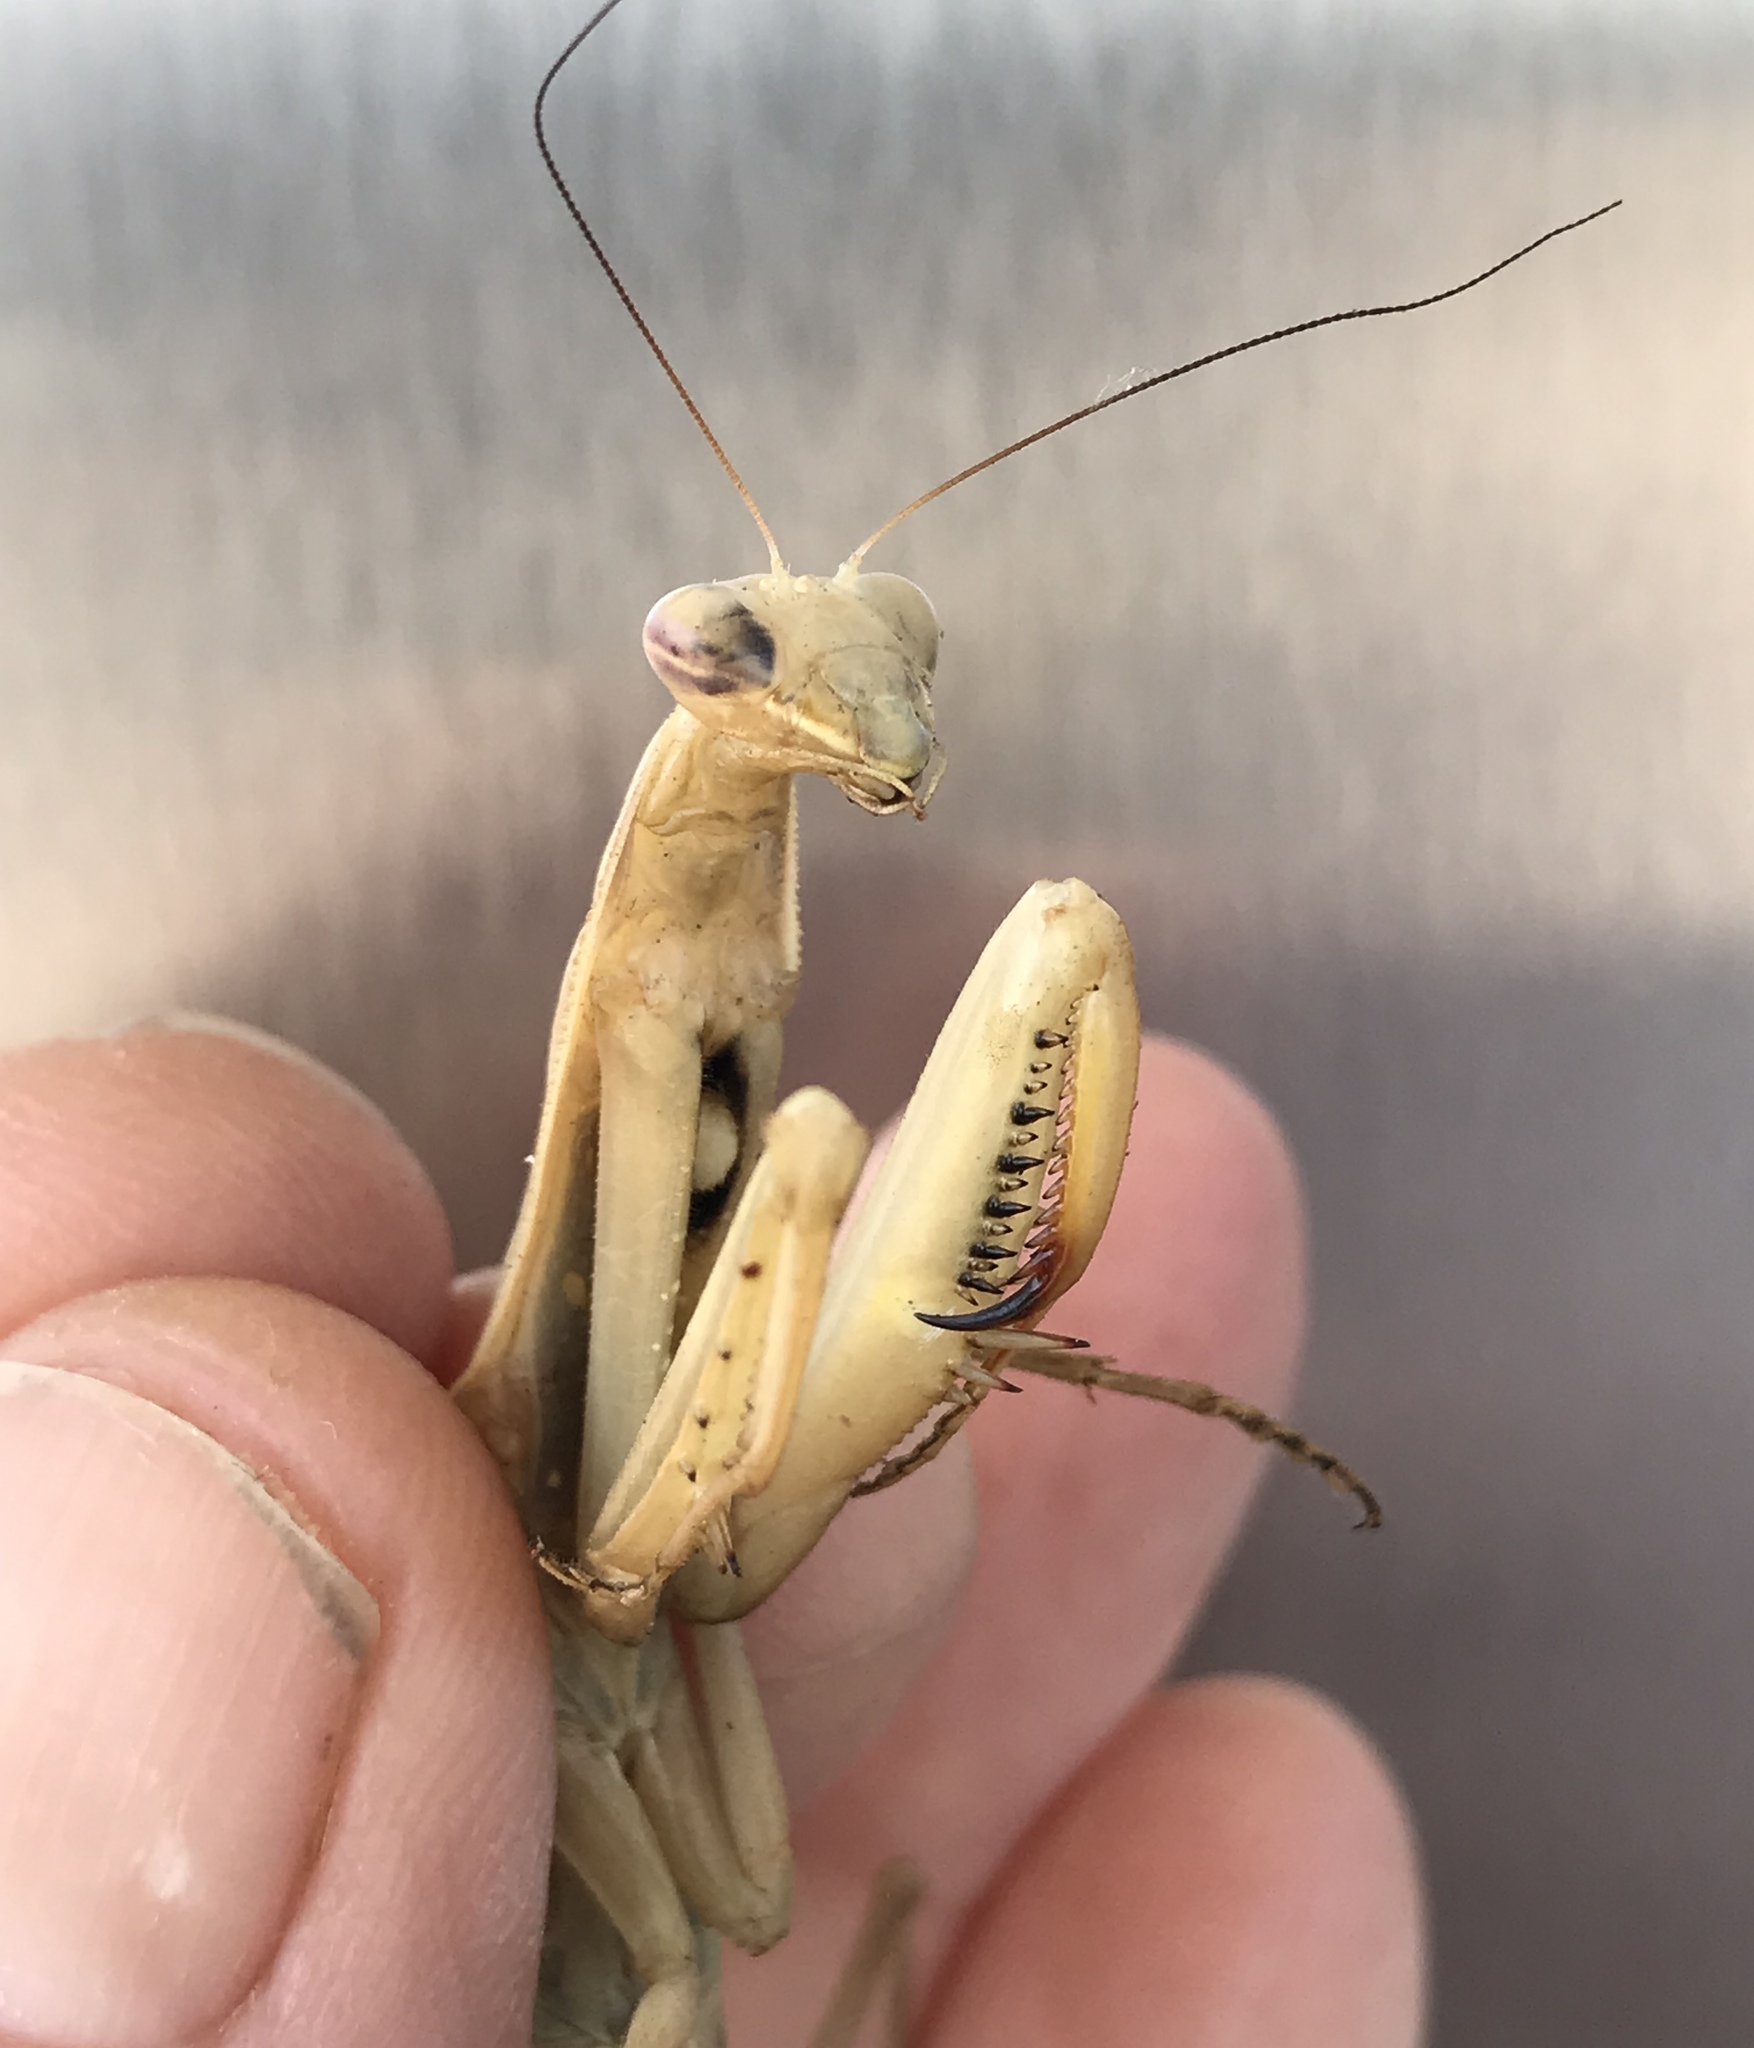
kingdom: Animalia
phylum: Arthropoda
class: Insecta
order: Mantodea
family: Mantidae
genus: Mantis
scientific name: Mantis religiosa
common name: Praying mantis
